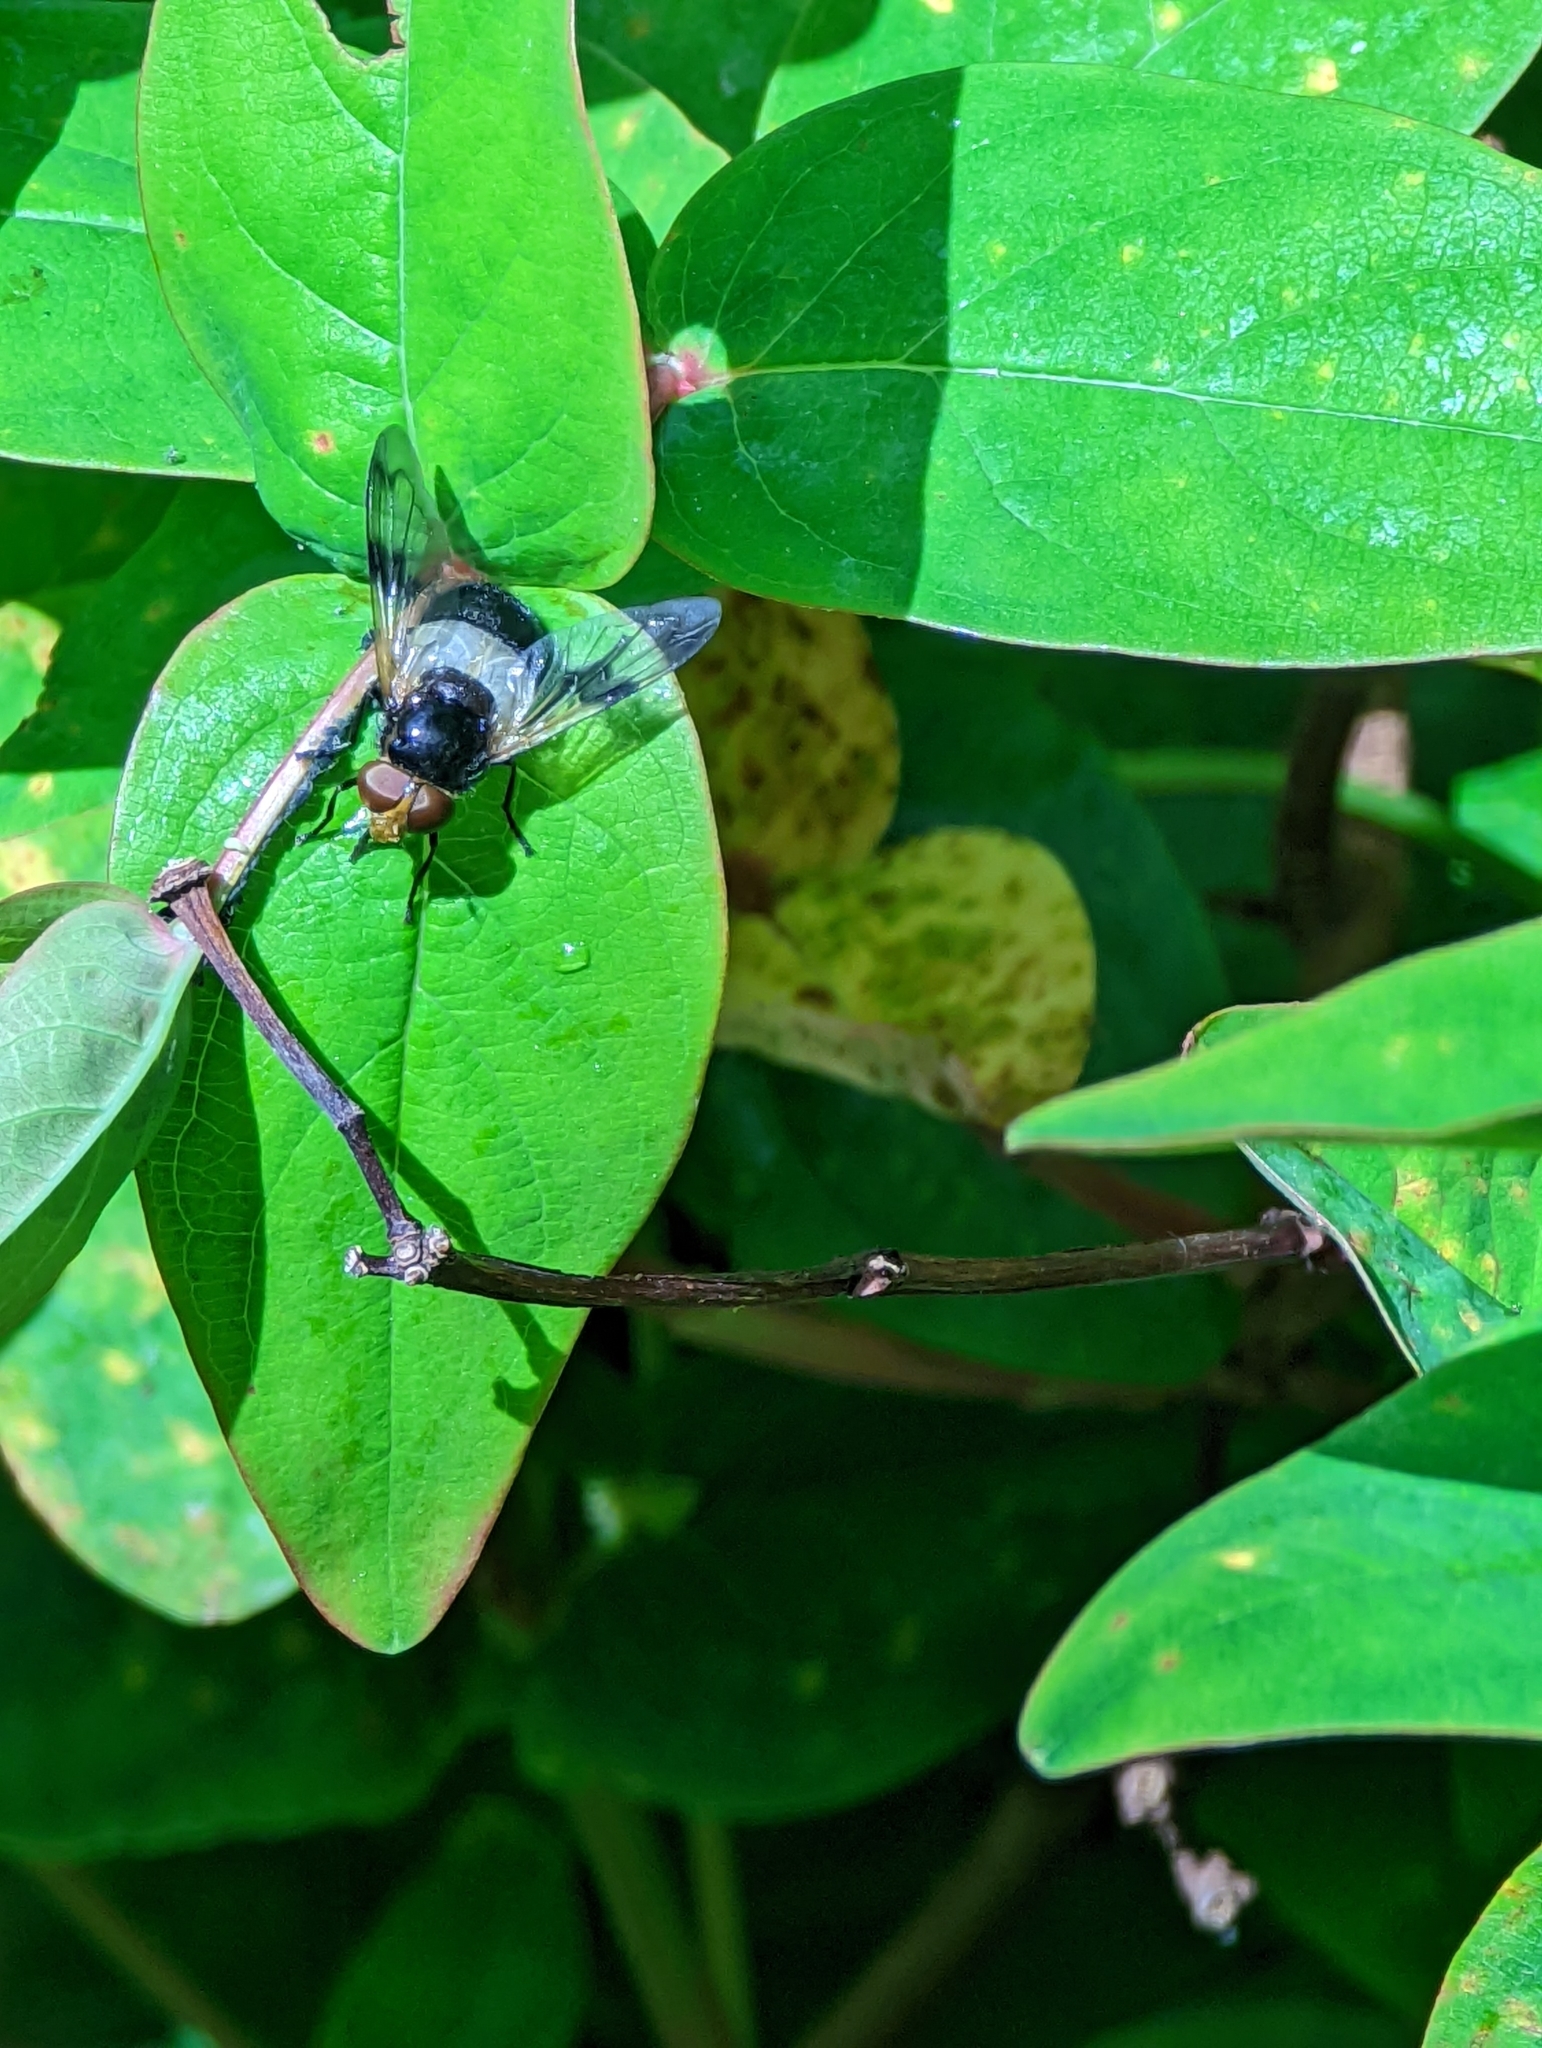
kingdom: Animalia
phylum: Arthropoda
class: Insecta
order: Diptera
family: Syrphidae
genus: Volucella
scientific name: Volucella pellucens
